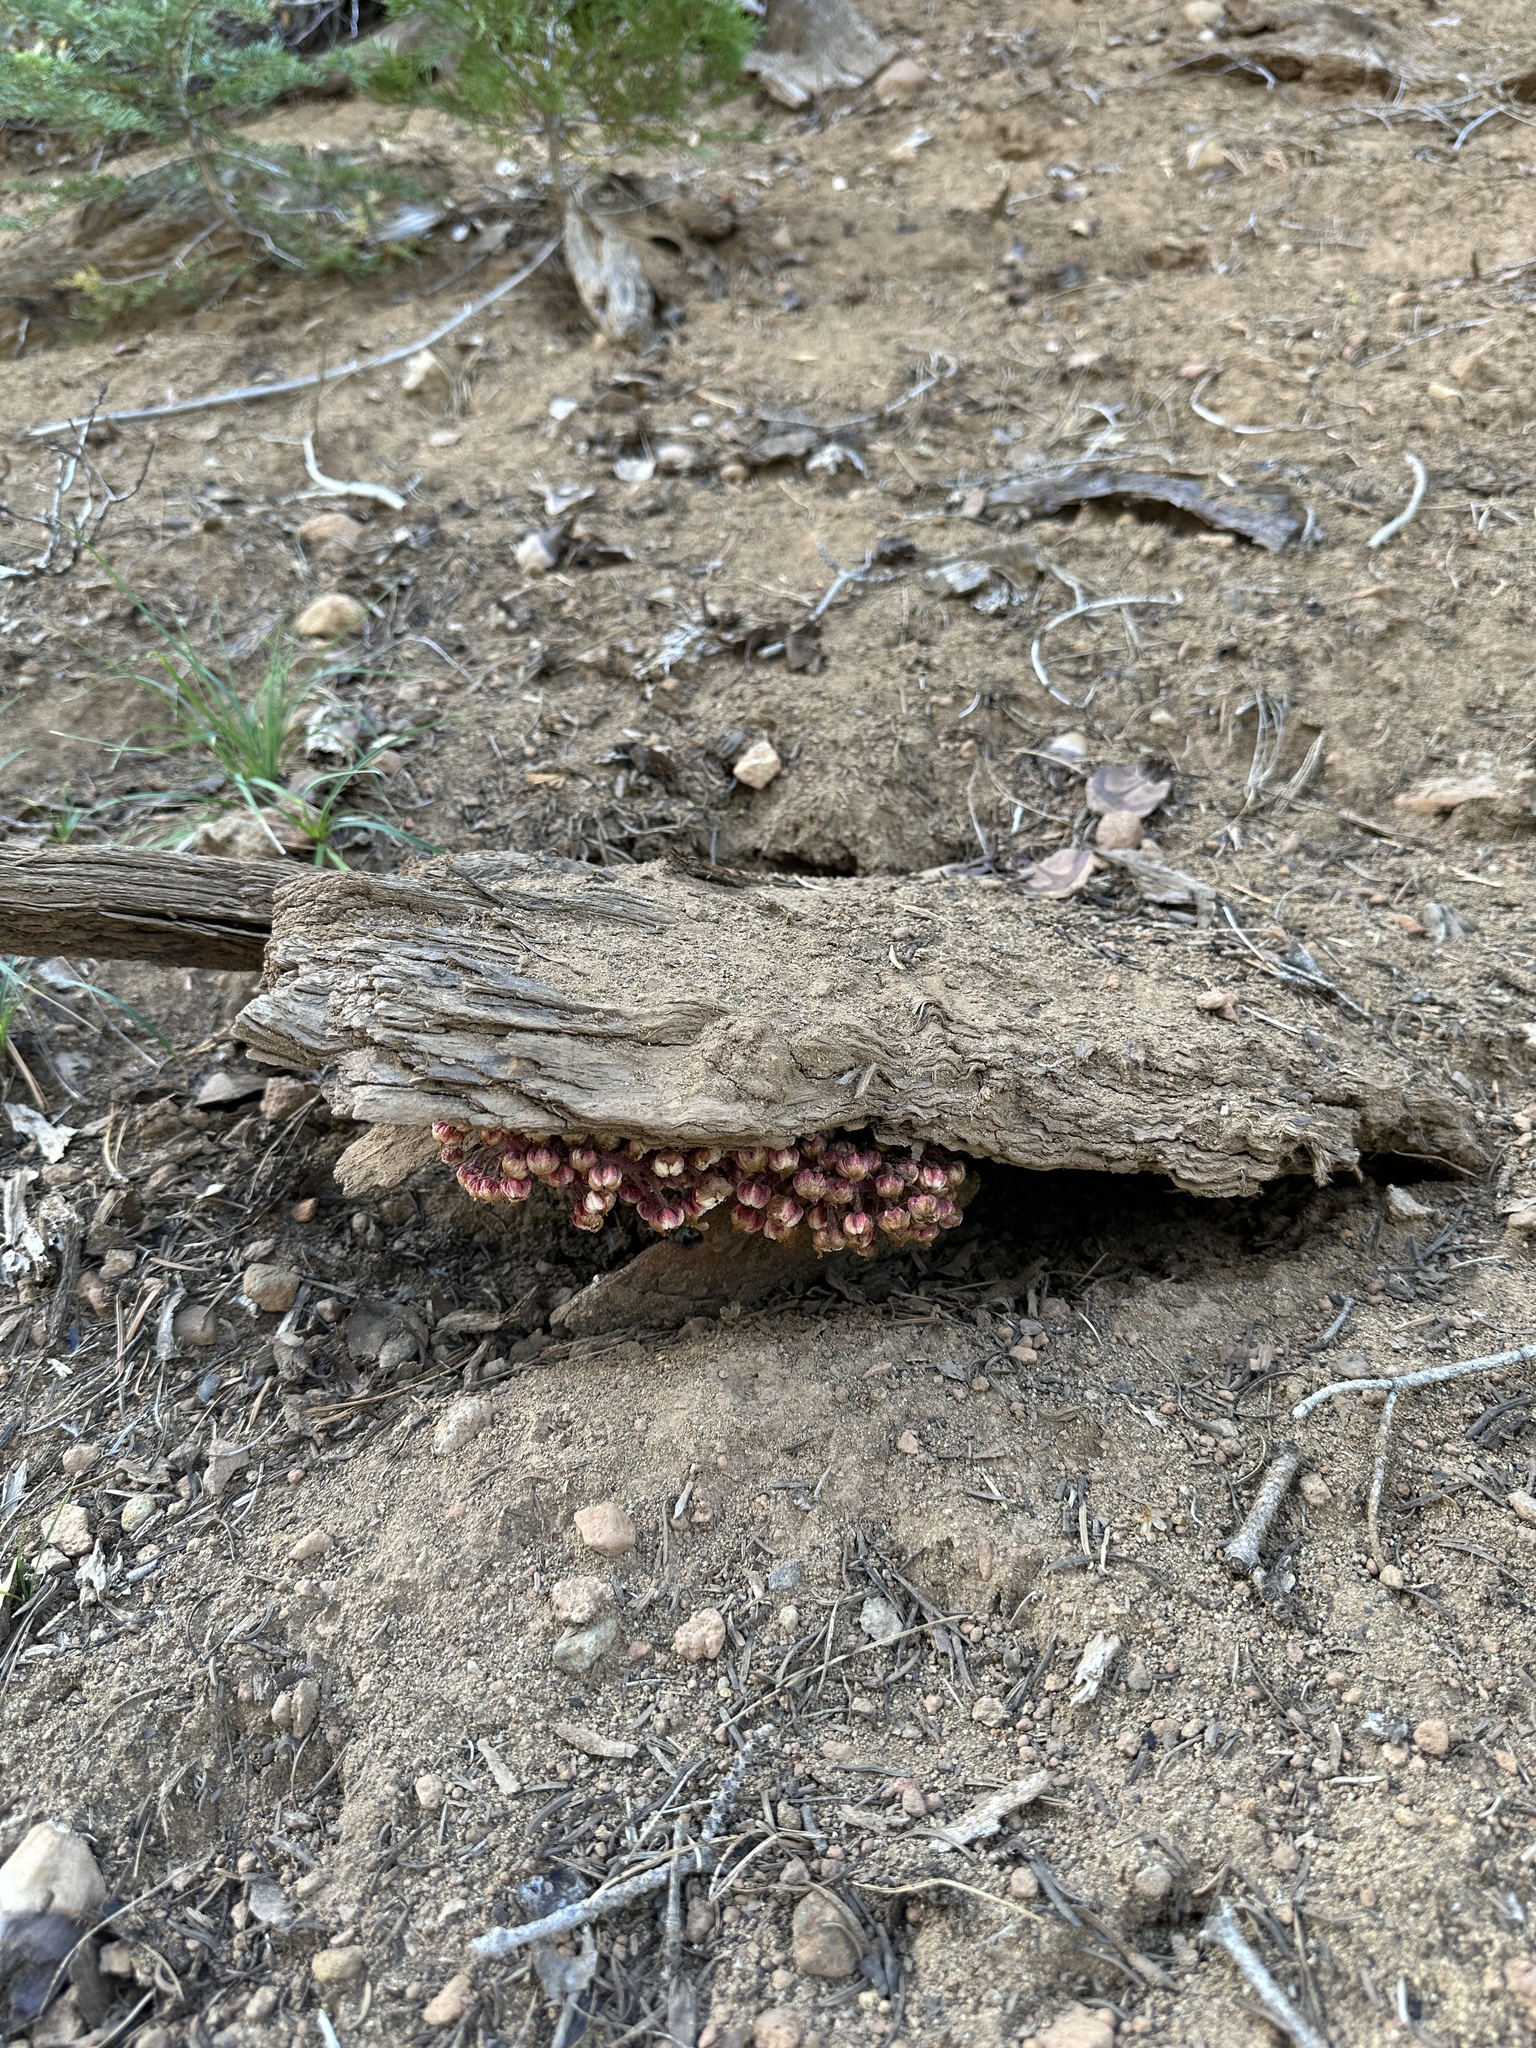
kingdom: Plantae
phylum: Tracheophyta
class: Magnoliopsida
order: Ericales
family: Ericaceae
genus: Pterospora
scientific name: Pterospora andromedea
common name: Giant bird's-nest
